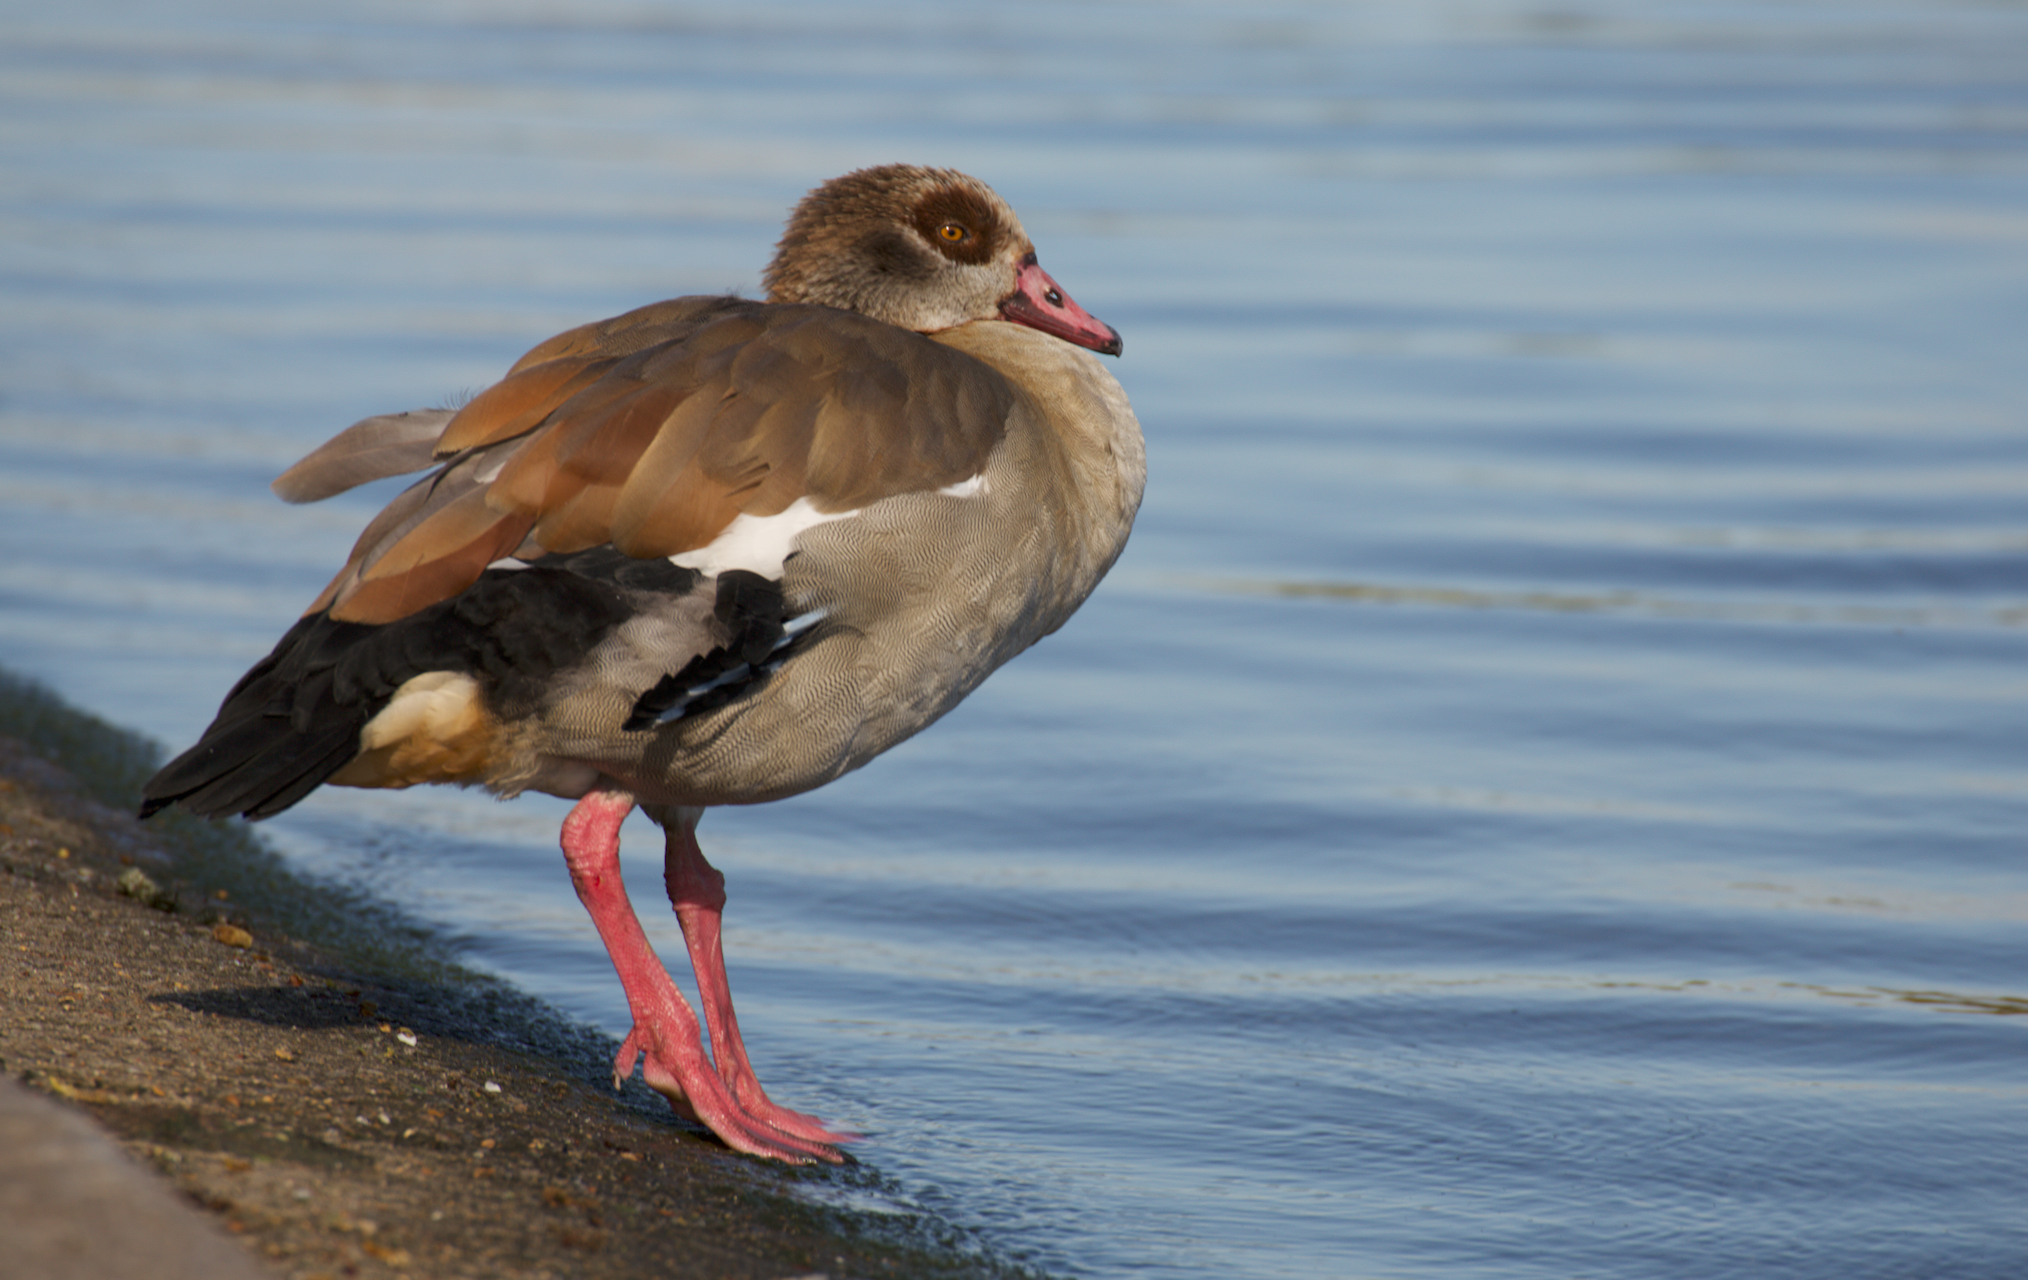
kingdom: Animalia
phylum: Chordata
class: Aves
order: Anseriformes
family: Anatidae
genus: Alopochen
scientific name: Alopochen aegyptiaca
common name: Egyptian goose
